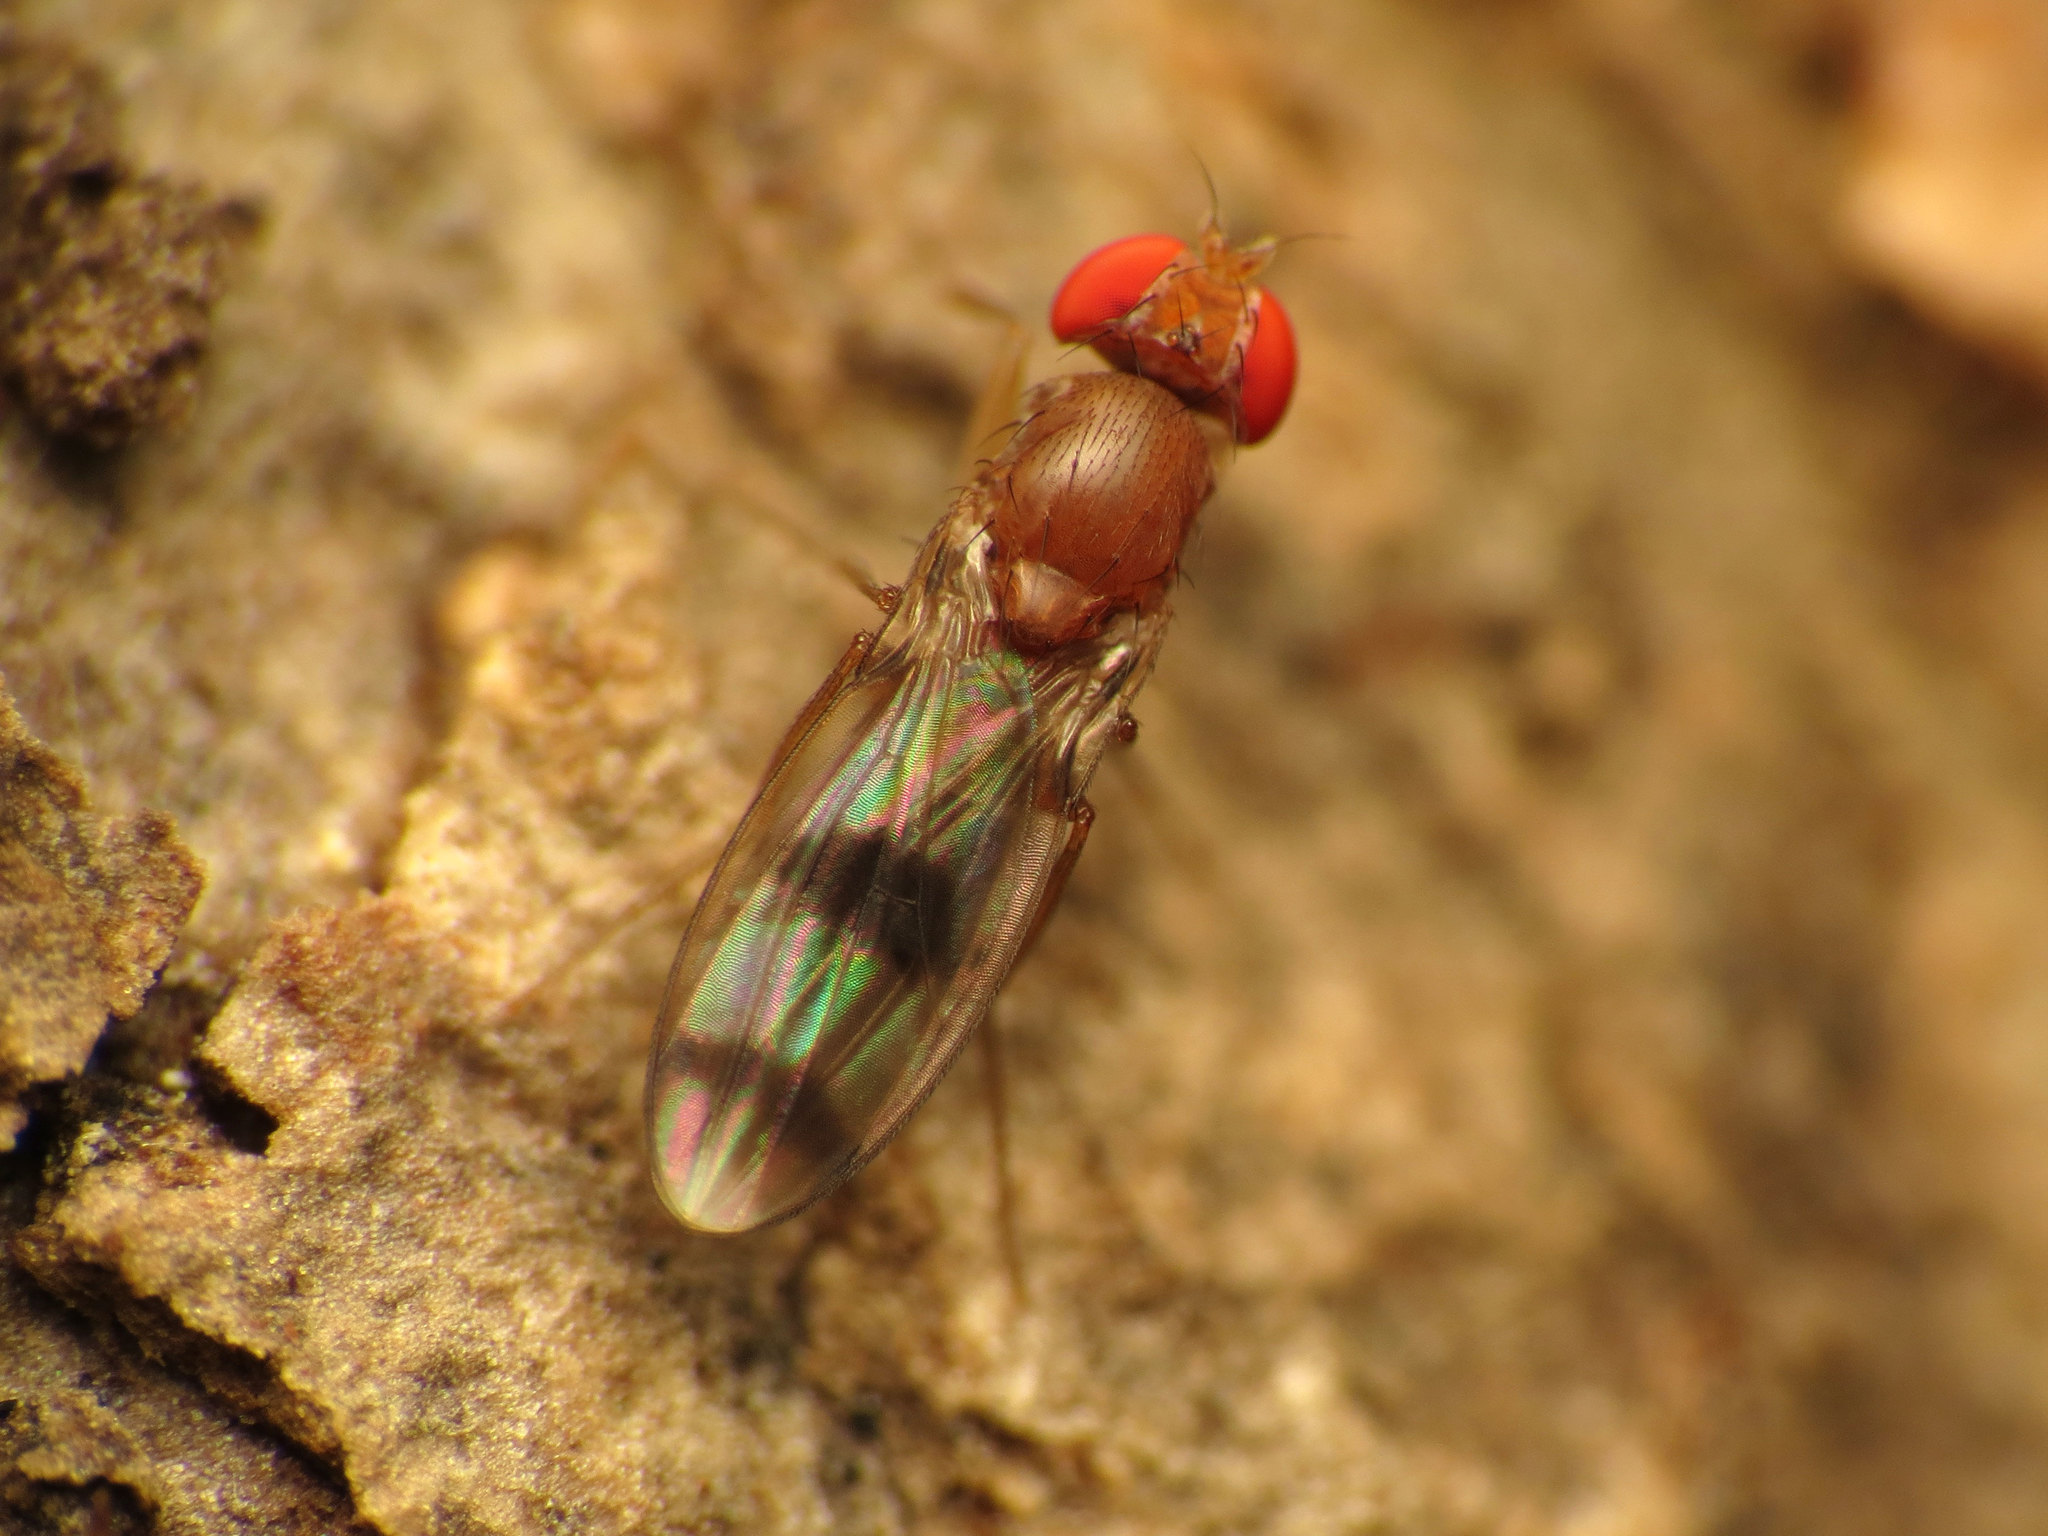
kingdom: Animalia
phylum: Arthropoda
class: Insecta
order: Diptera
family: Drosophilidae
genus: Chymomyza
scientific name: Chymomyza amoena
